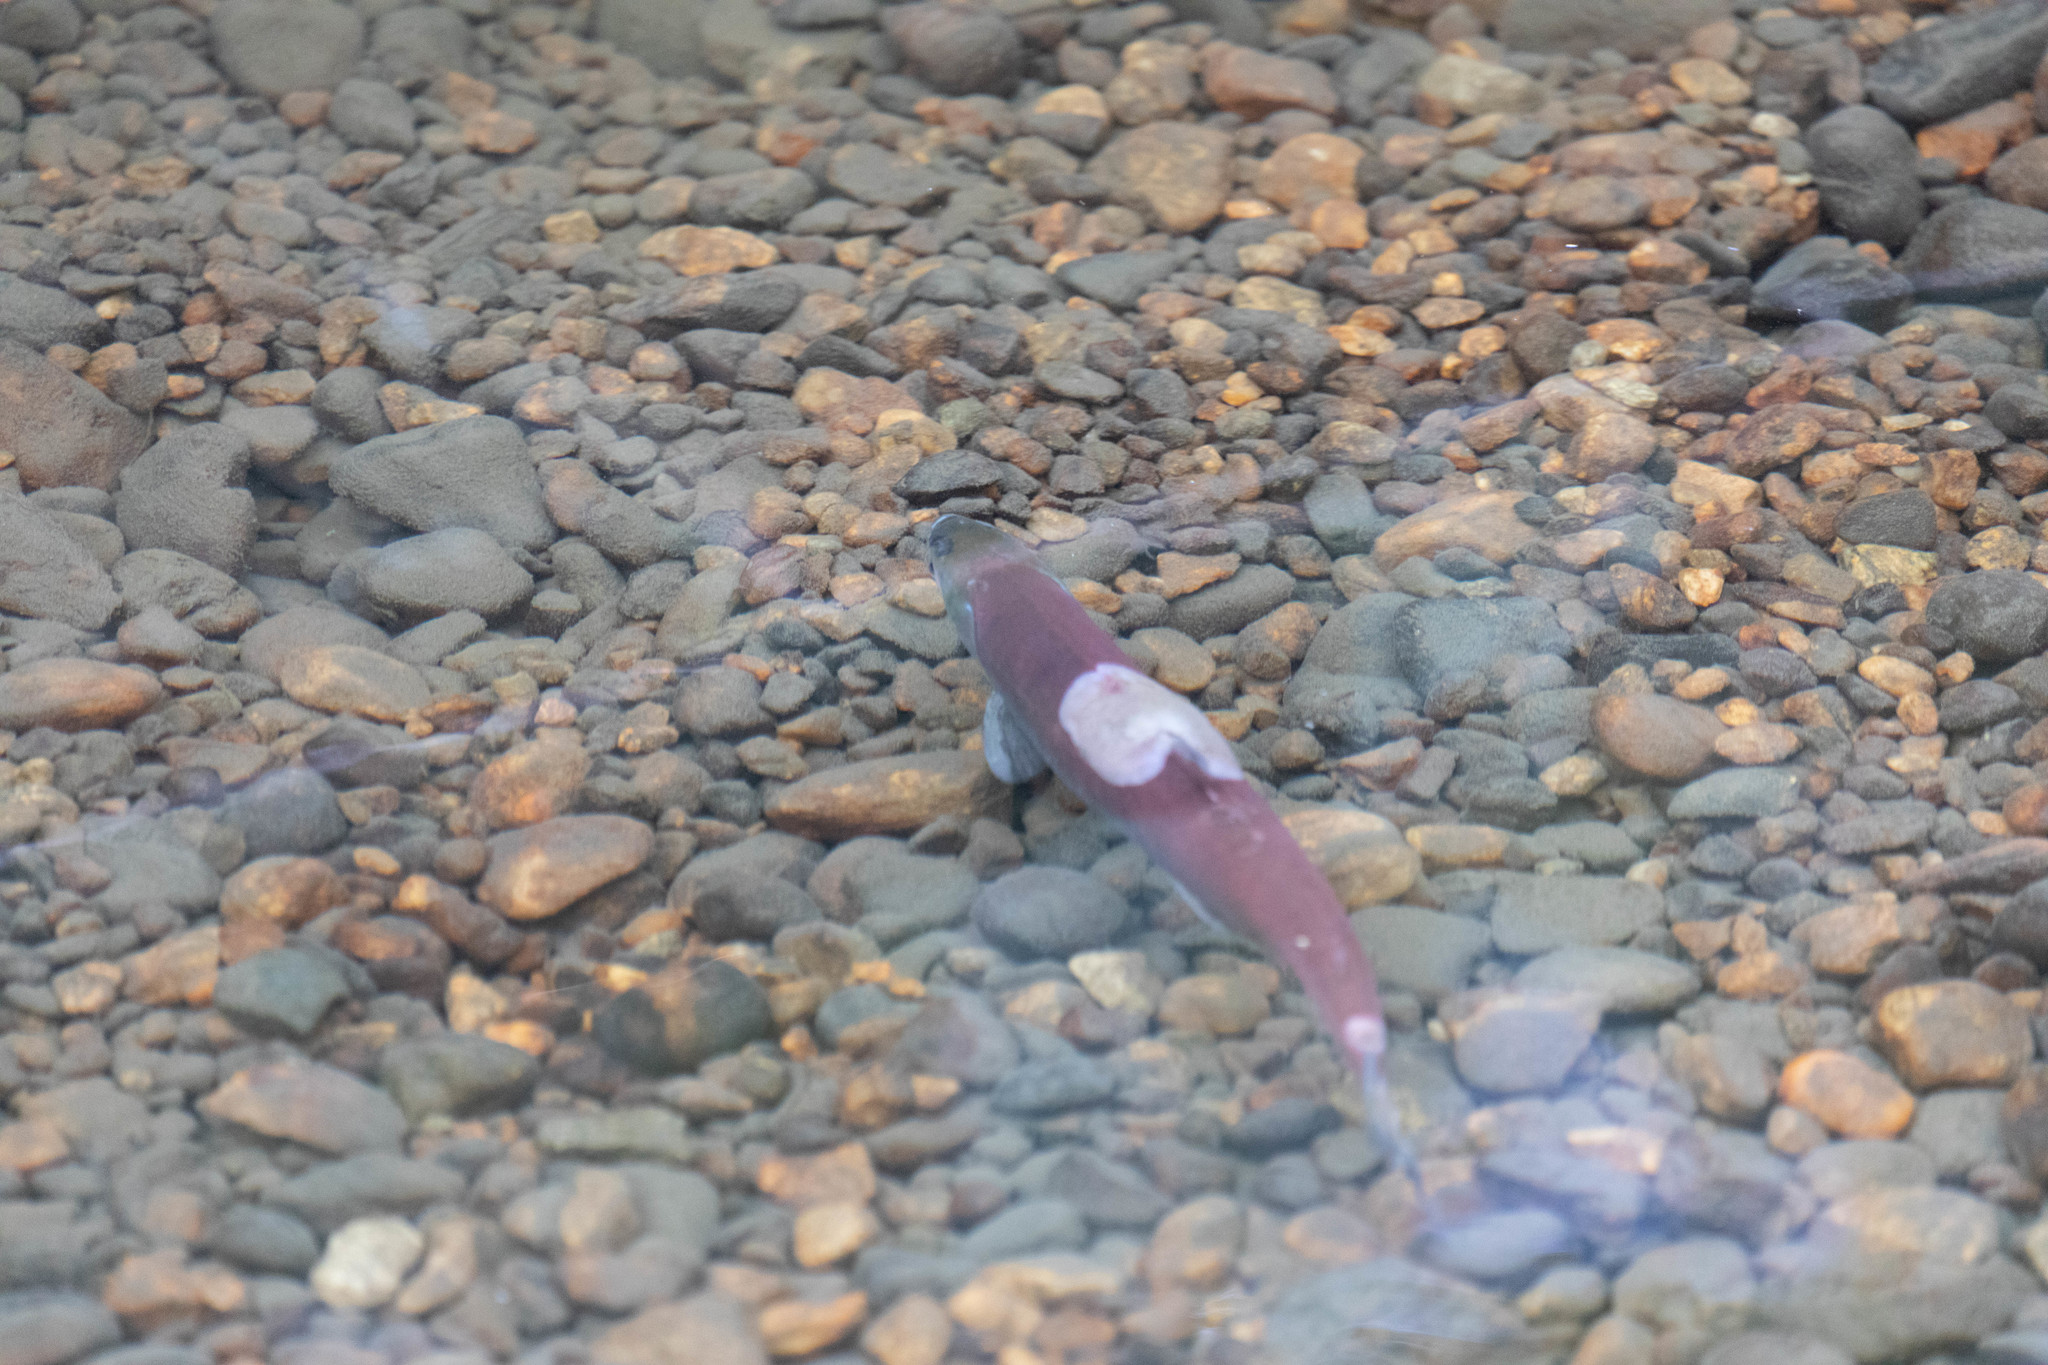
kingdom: Animalia
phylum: Chordata
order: Salmoniformes
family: Salmonidae
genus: Oncorhynchus
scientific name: Oncorhynchus nerka
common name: Sockeye salmon
